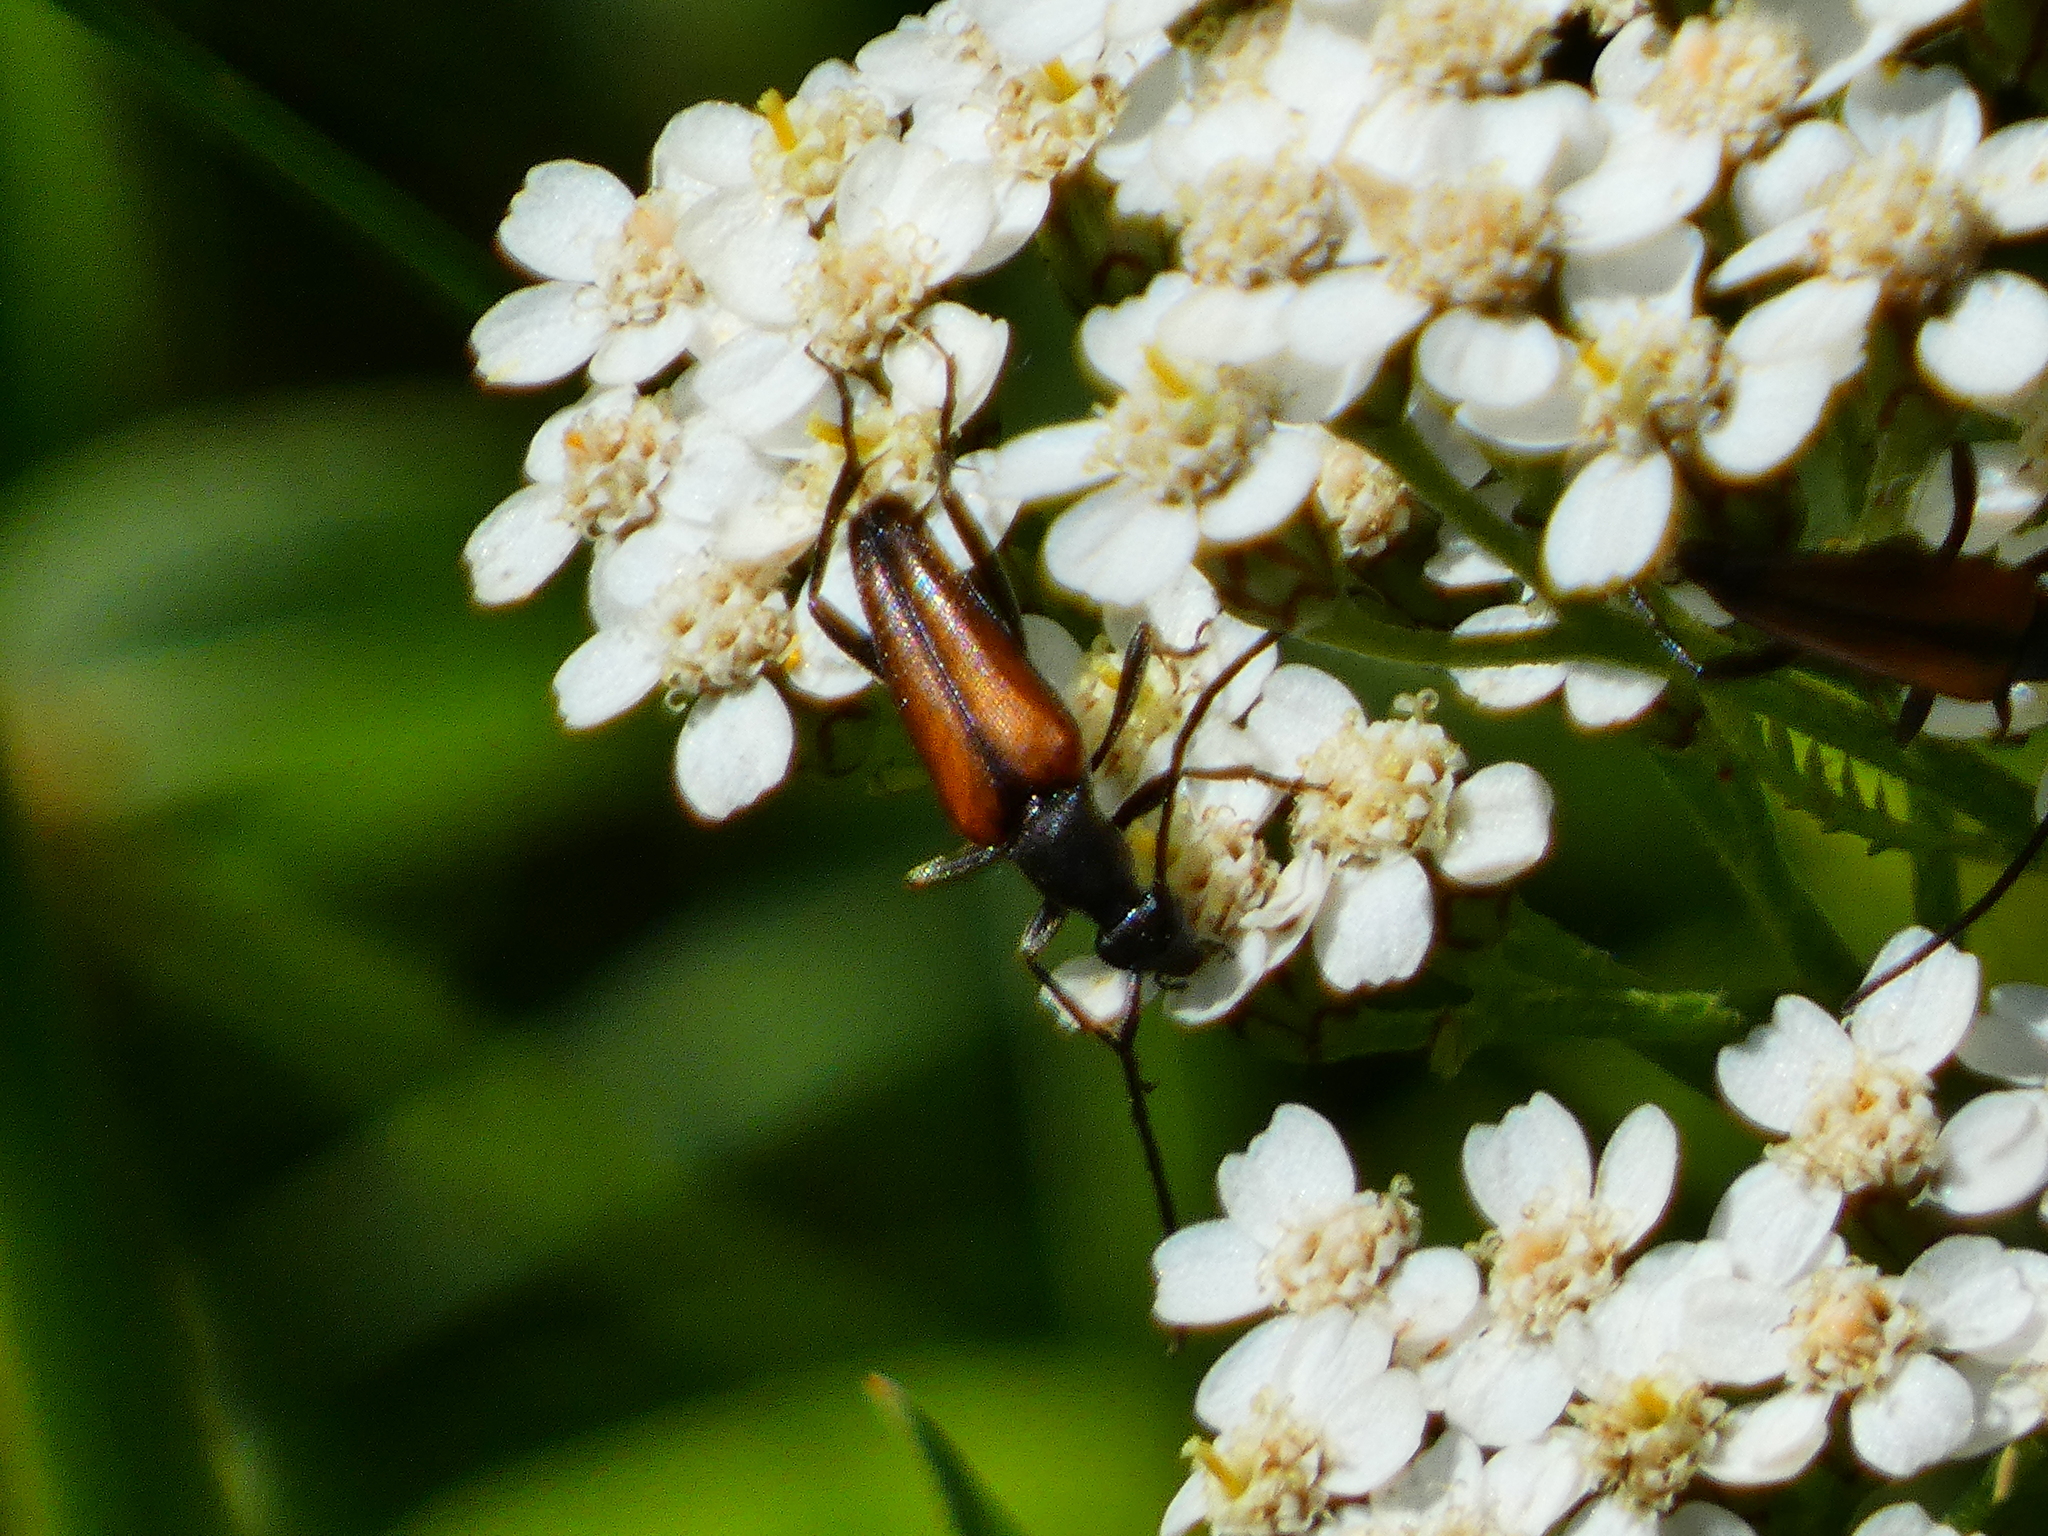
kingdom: Animalia
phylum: Arthropoda
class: Insecta
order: Coleoptera
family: Cerambycidae
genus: Stenurella
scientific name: Stenurella melanura
